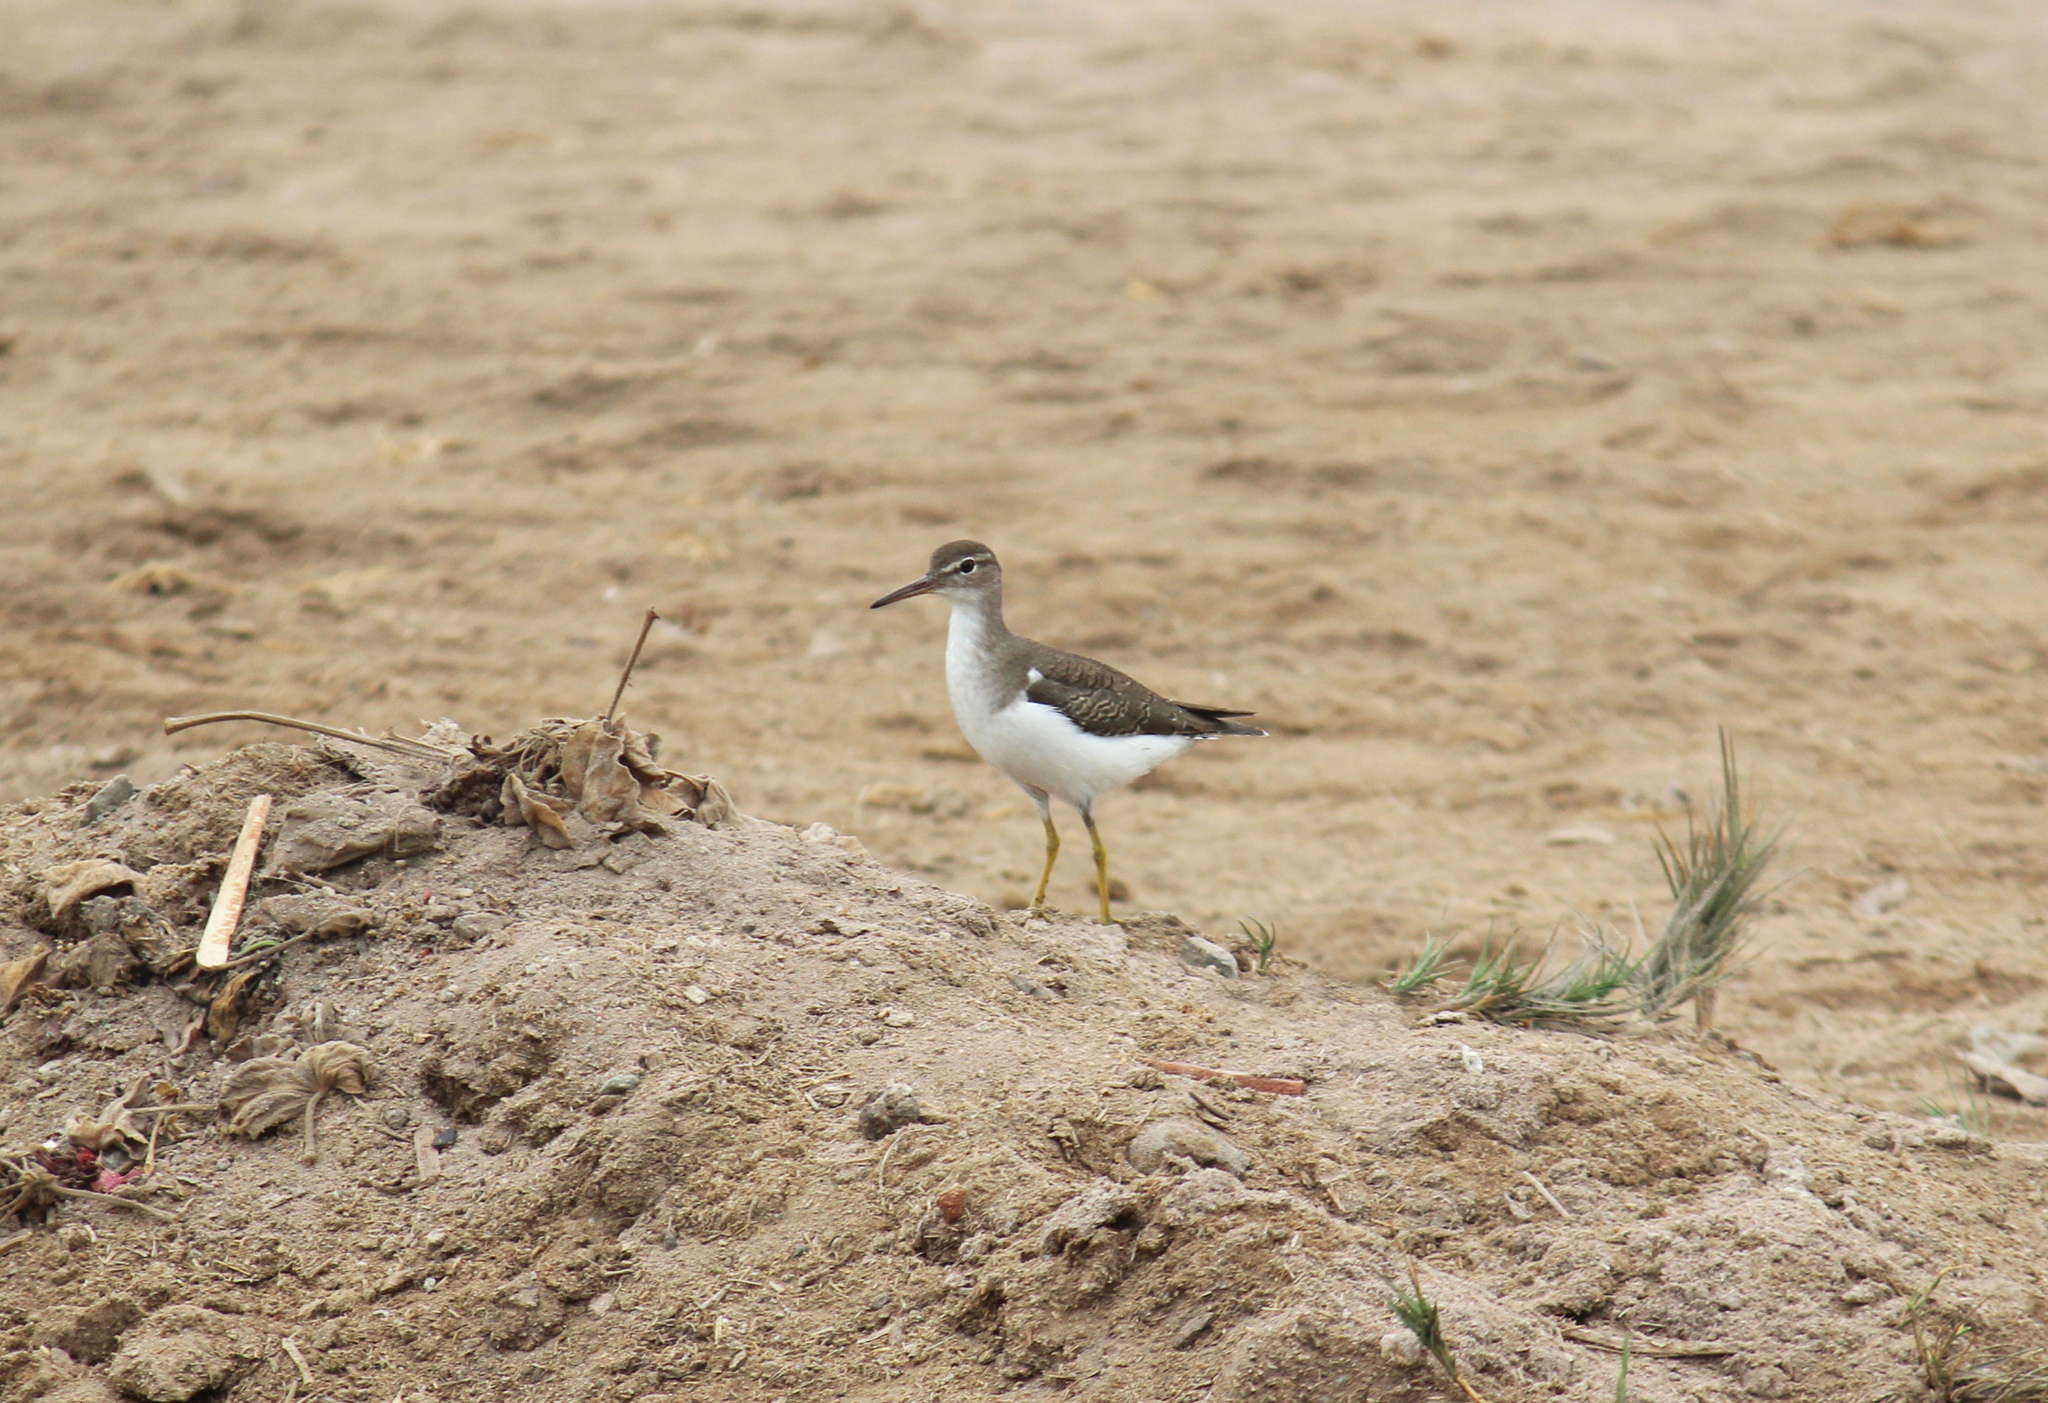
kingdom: Animalia
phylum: Chordata
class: Aves
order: Charadriiformes
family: Scolopacidae
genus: Actitis
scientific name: Actitis macularius
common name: Spotted sandpiper
